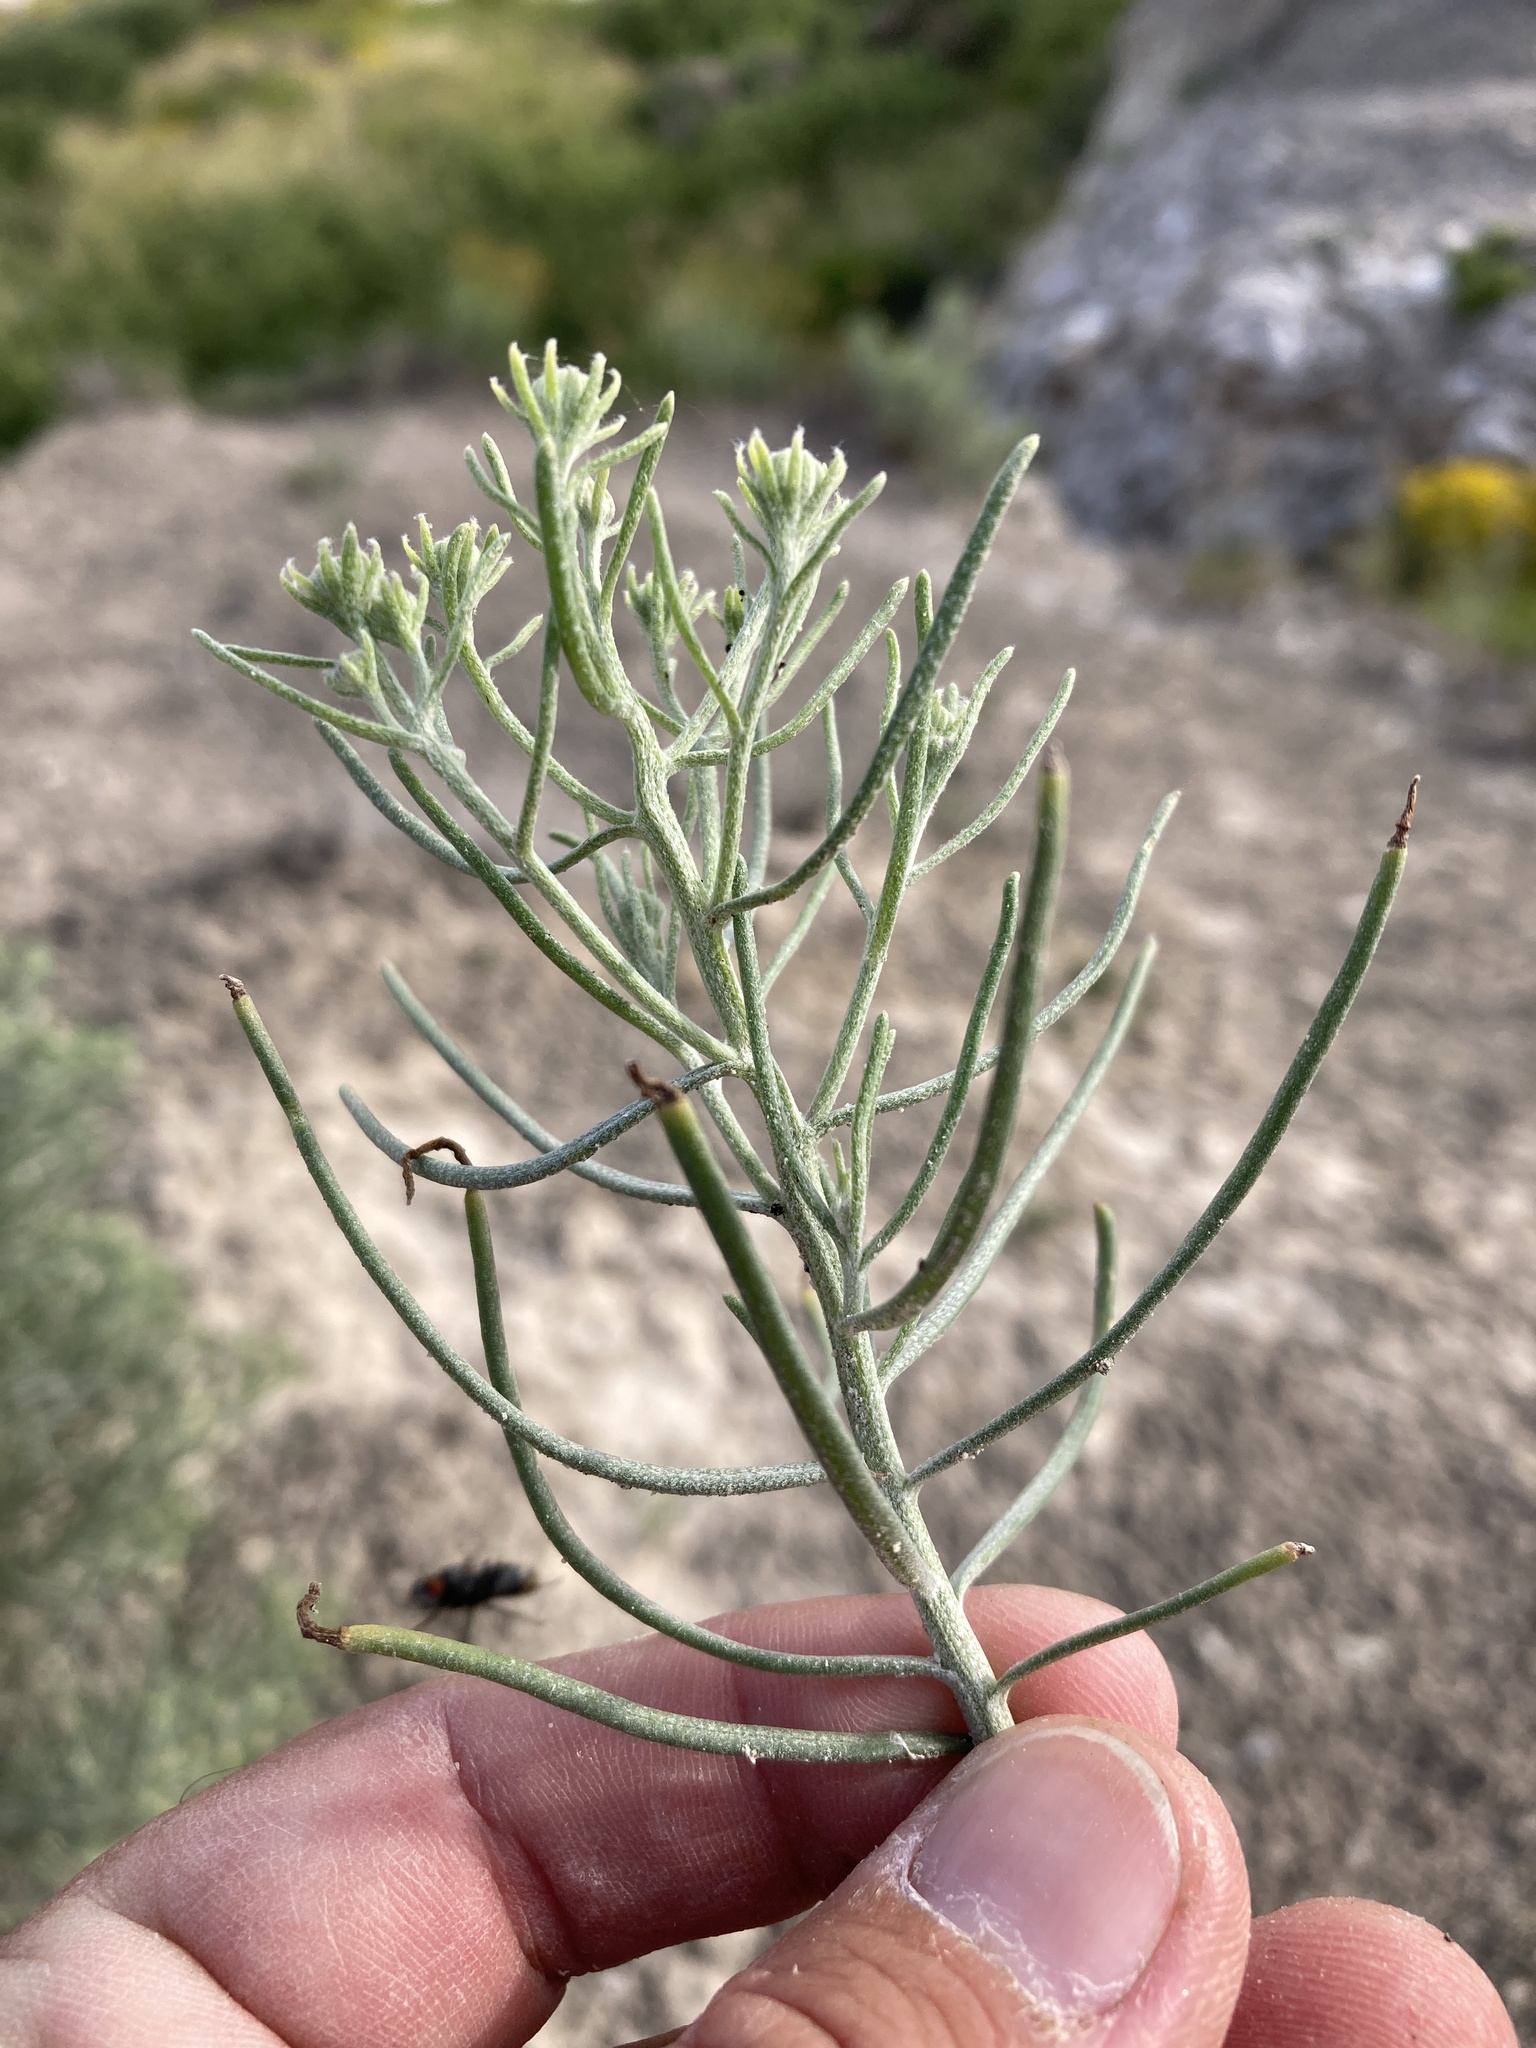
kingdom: Plantae
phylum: Tracheophyta
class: Magnoliopsida
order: Asterales
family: Asteraceae
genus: Senecio
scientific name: Senecio warnockii
